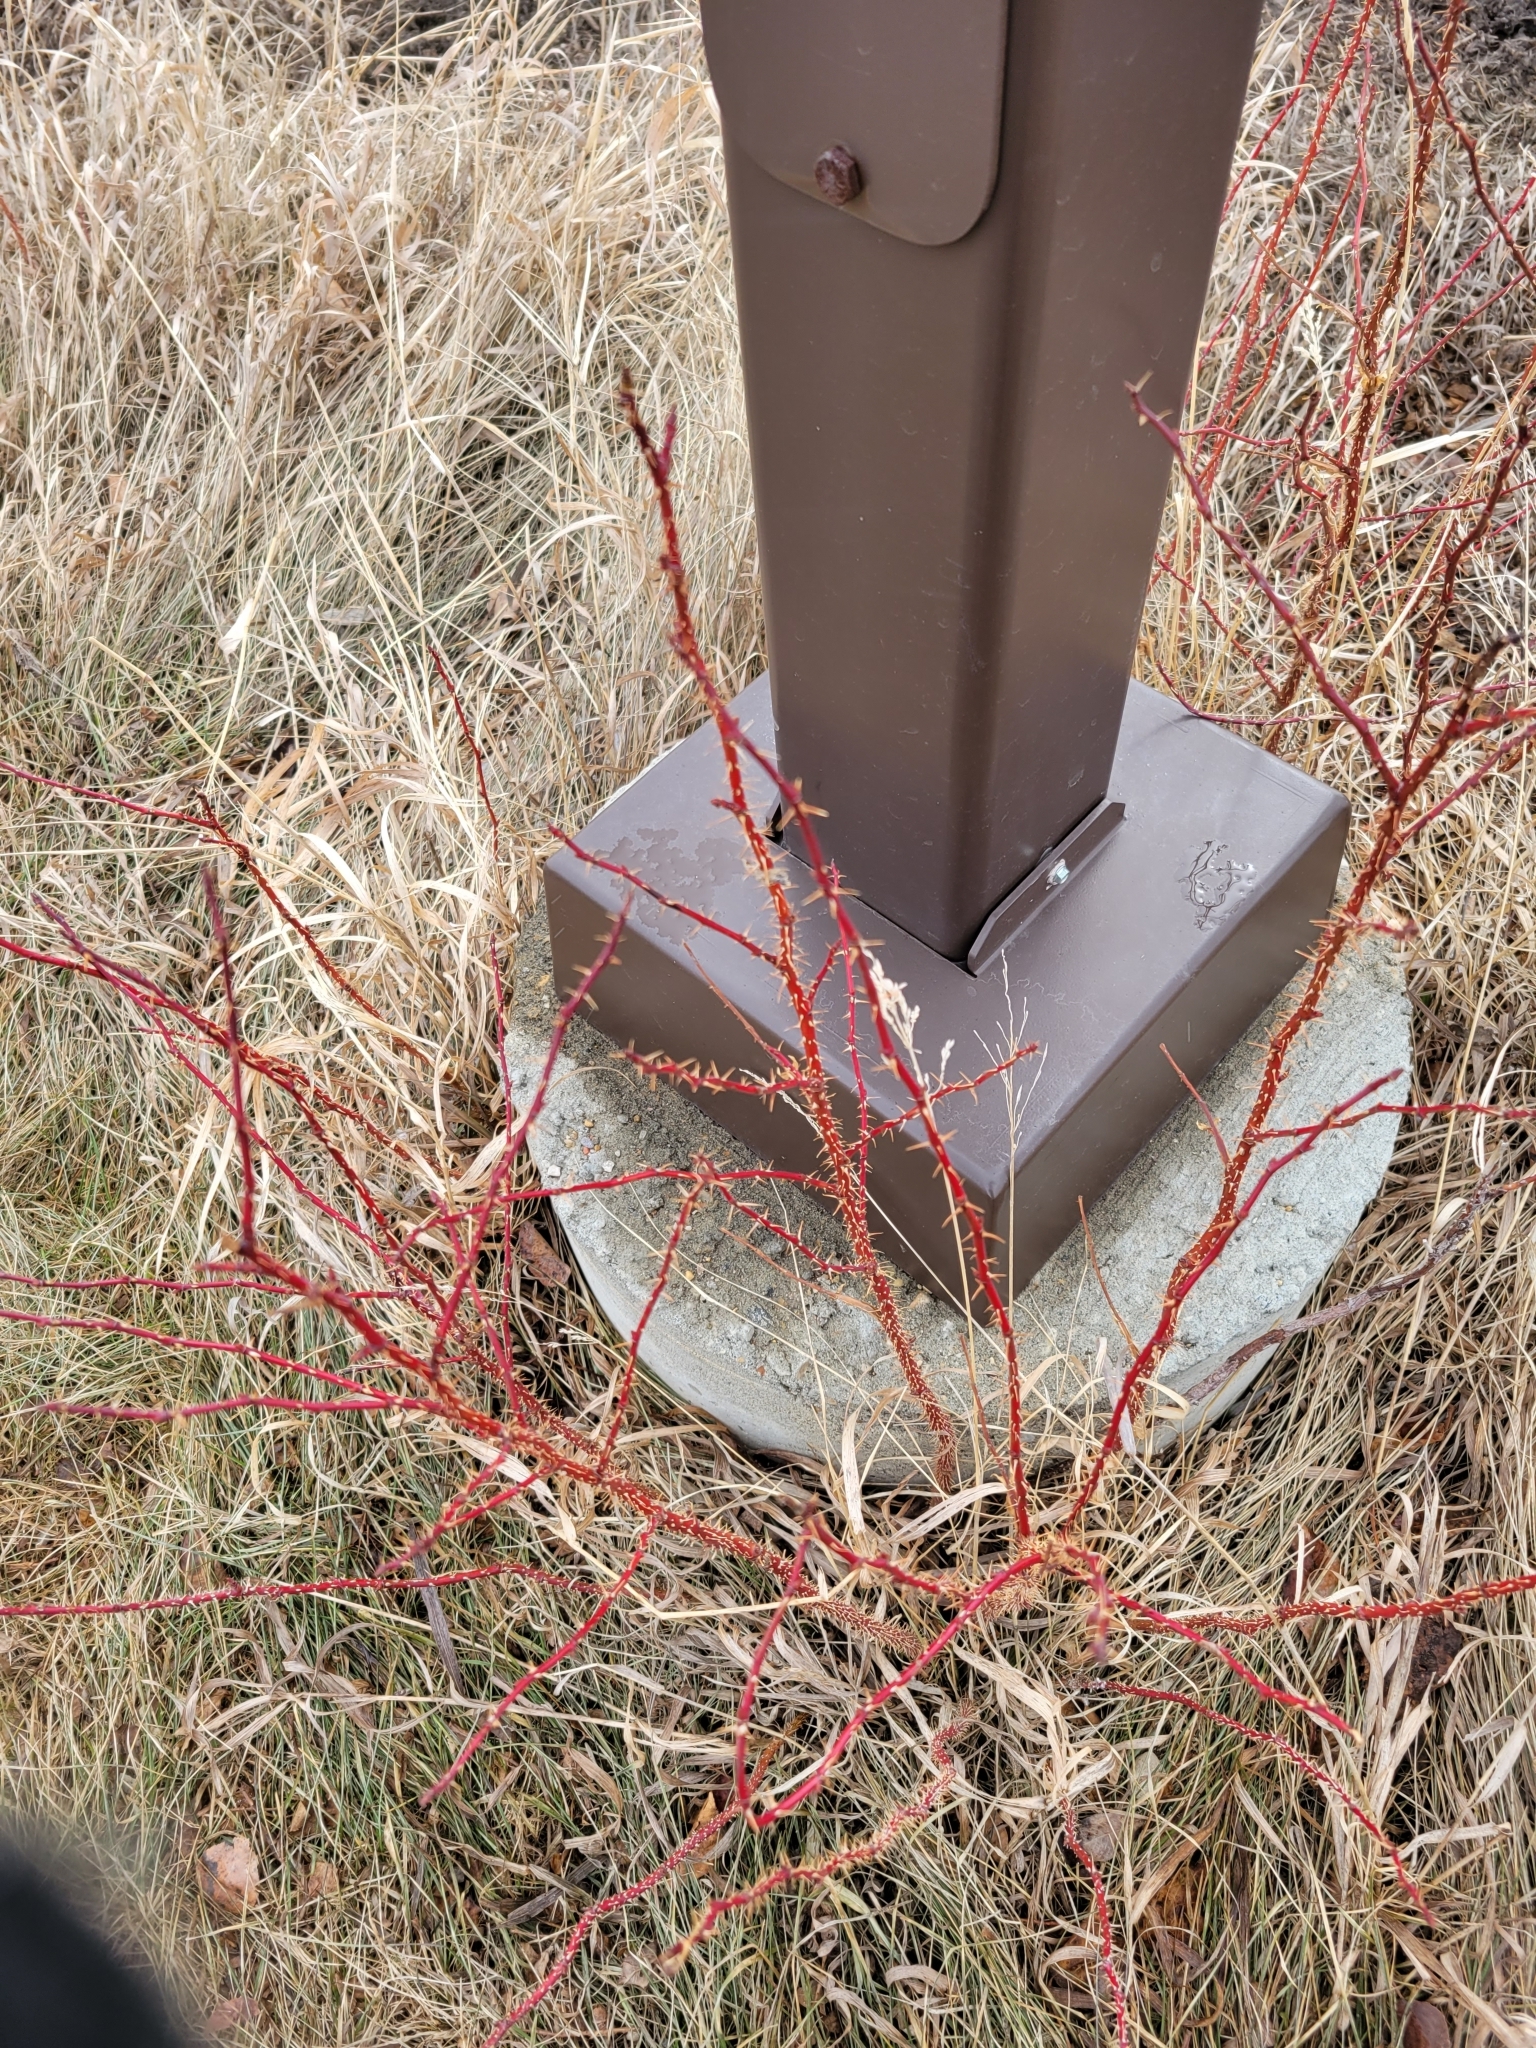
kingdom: Plantae
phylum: Tracheophyta
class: Magnoliopsida
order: Rosales
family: Rosaceae
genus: Rosa
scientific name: Rosa acicularis
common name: Prickly rose
